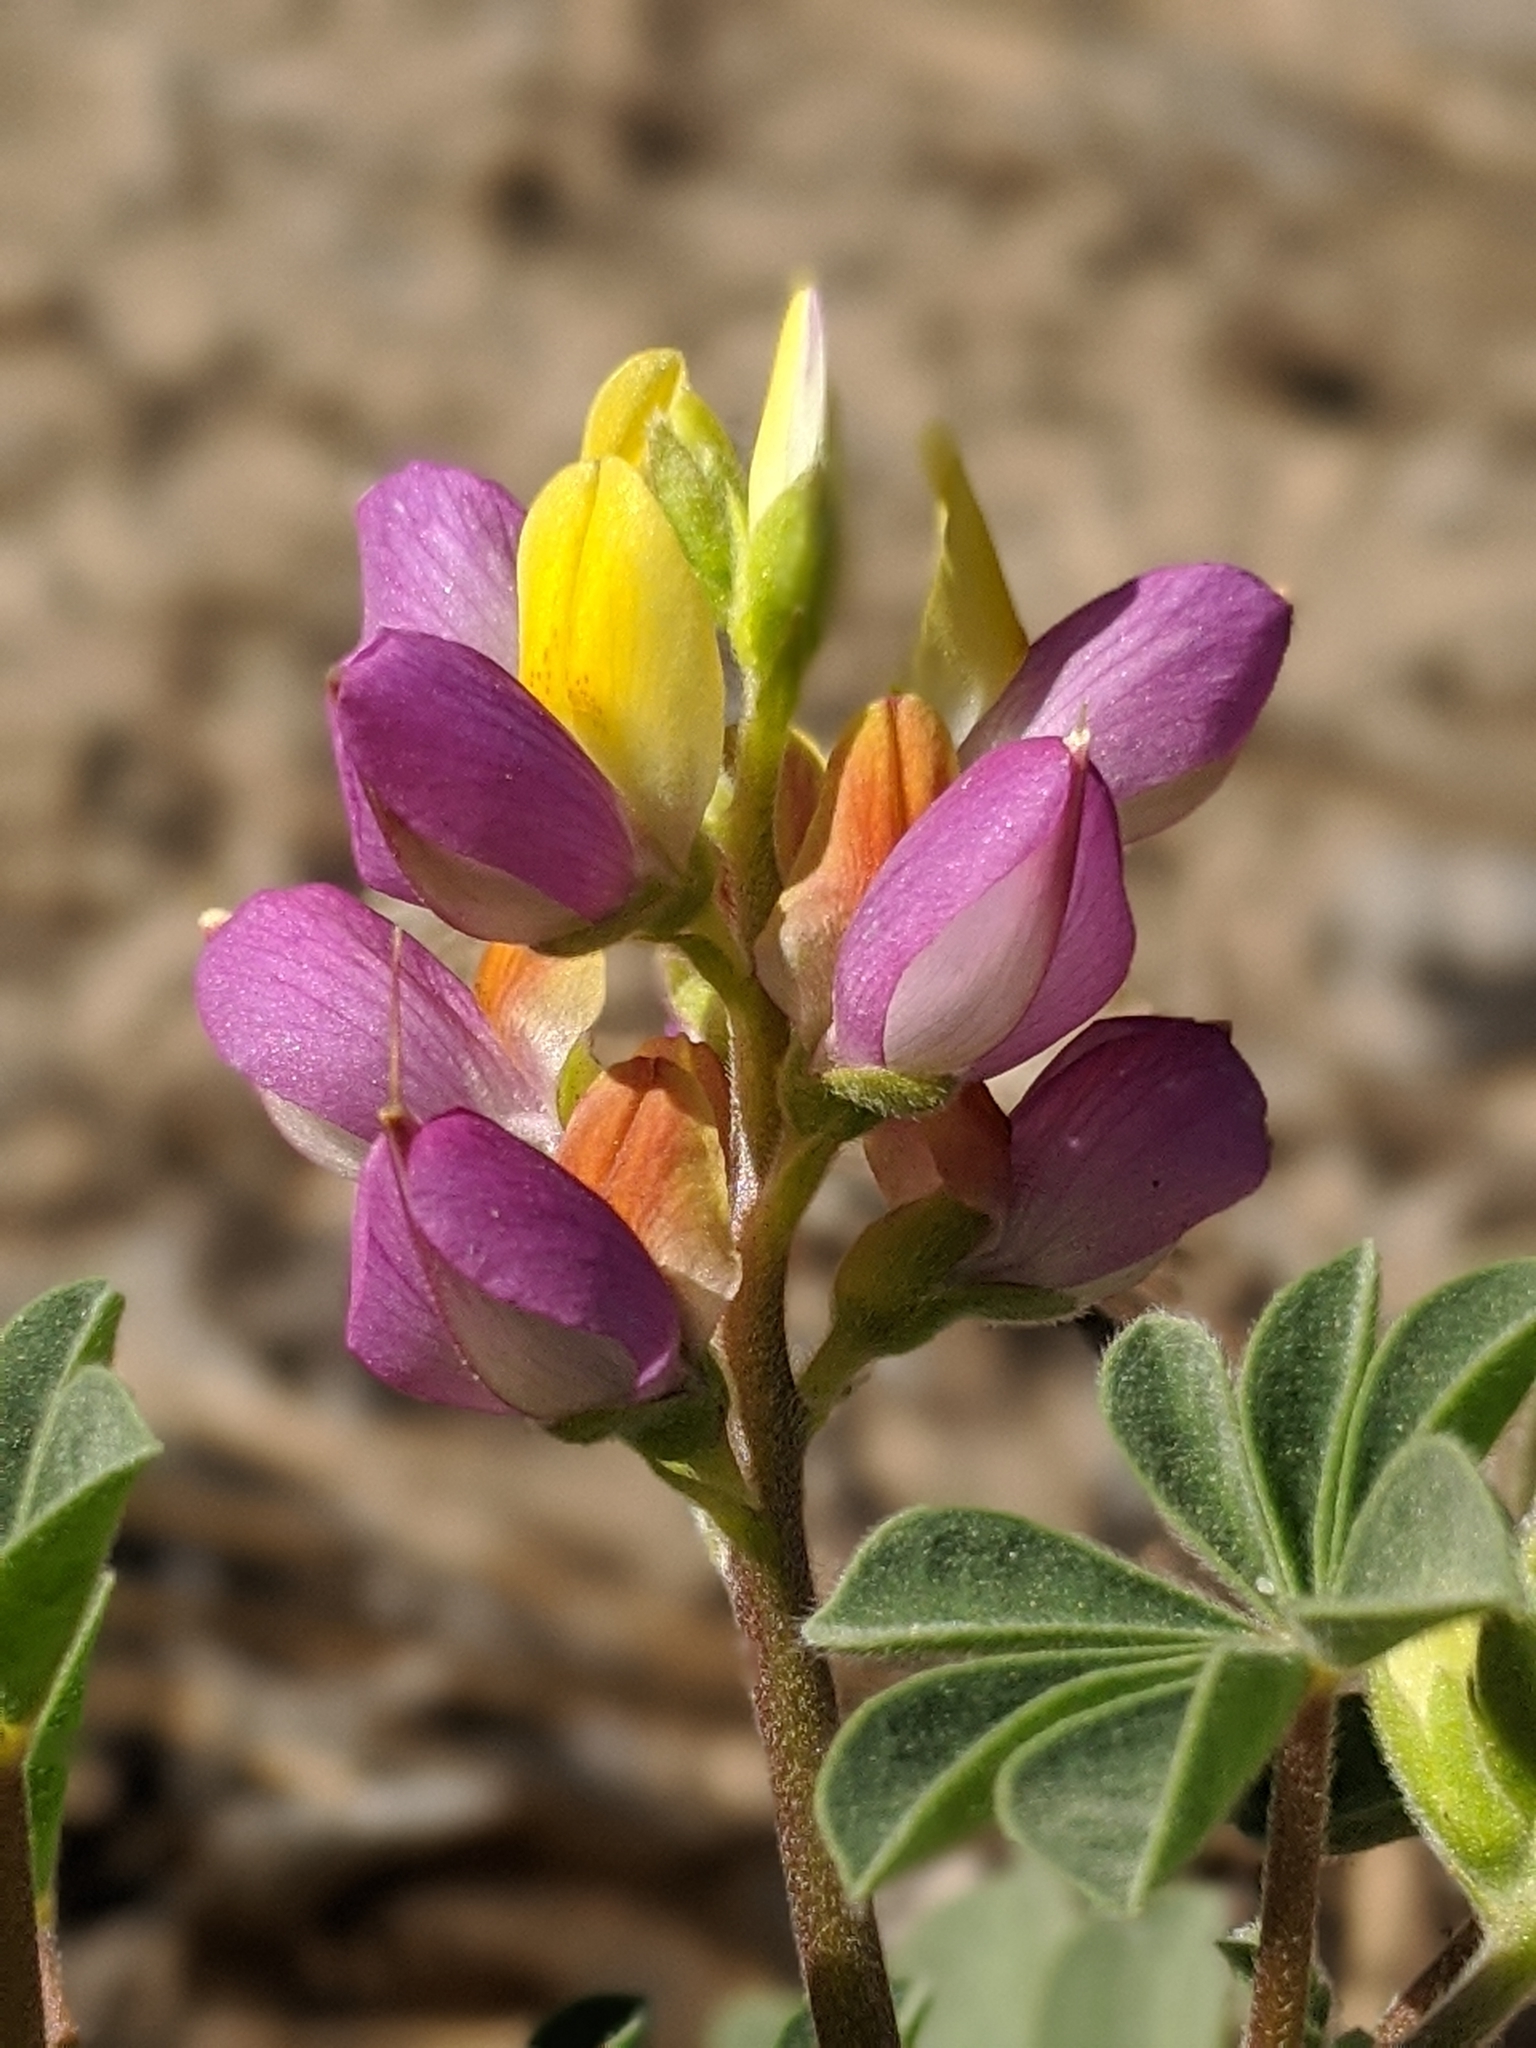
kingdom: Plantae
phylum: Tracheophyta
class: Magnoliopsida
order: Fabales
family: Fabaceae
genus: Lupinus
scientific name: Lupinus stiversii
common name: Harlequin lupine
